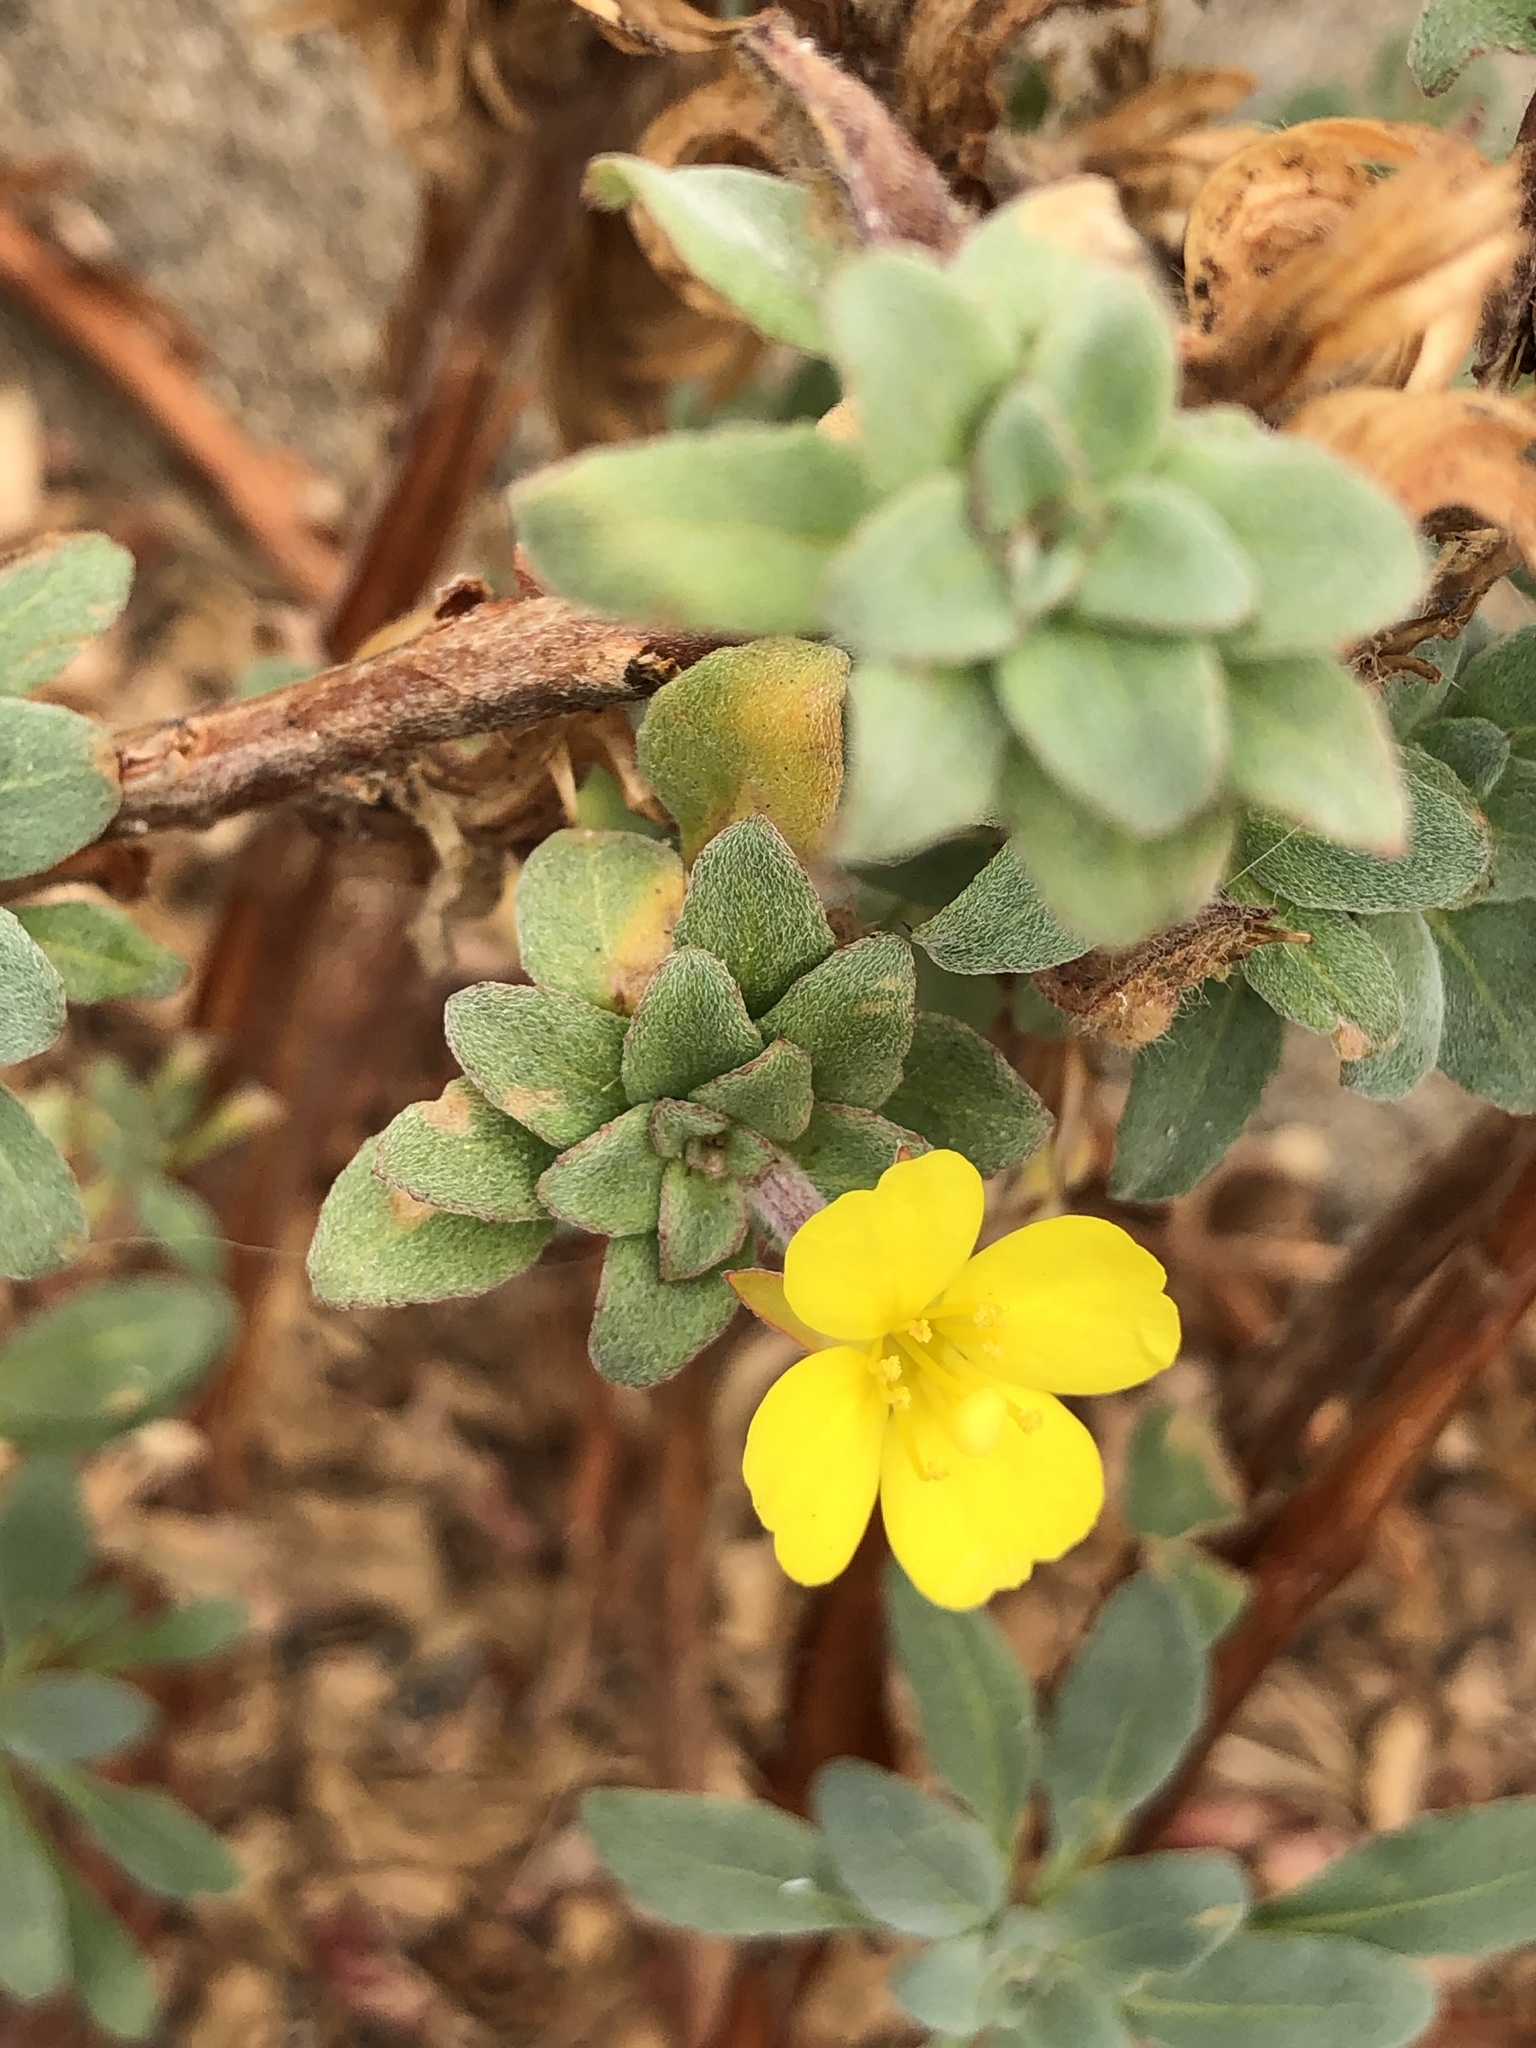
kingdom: Plantae
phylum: Tracheophyta
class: Magnoliopsida
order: Myrtales
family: Onagraceae
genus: Camissoniopsis
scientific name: Camissoniopsis cheiranthifolia
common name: Beach suncup
